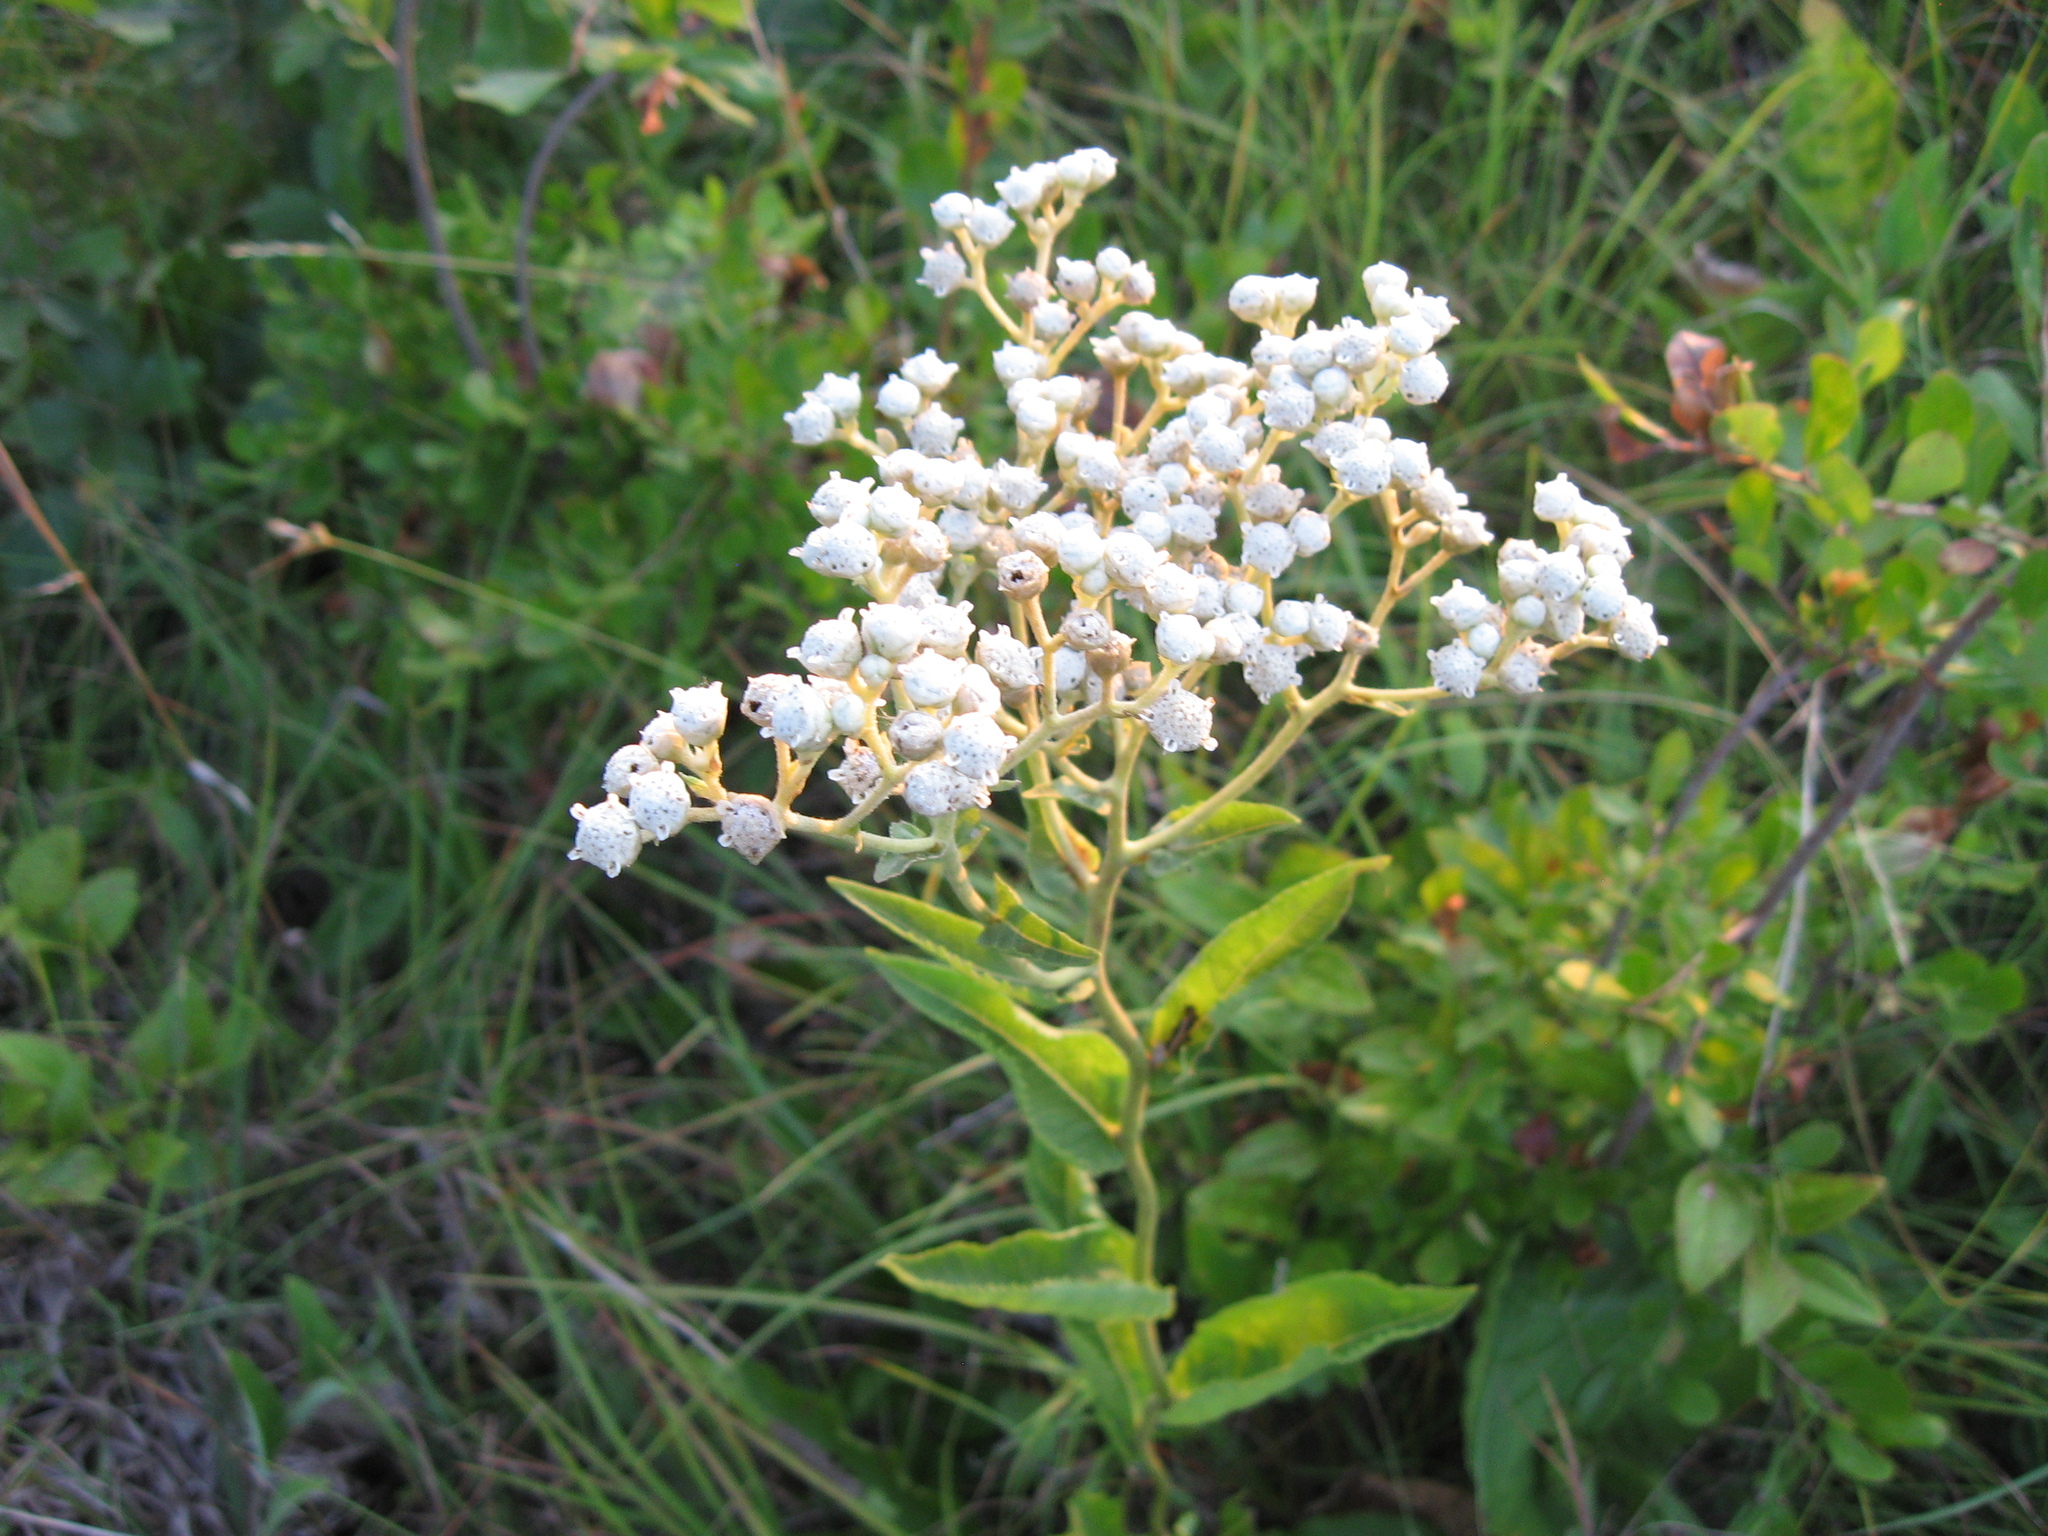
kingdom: Plantae
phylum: Tracheophyta
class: Magnoliopsida
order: Asterales
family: Asteraceae
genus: Parthenium
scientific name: Parthenium integrifolium
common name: American feverfew
